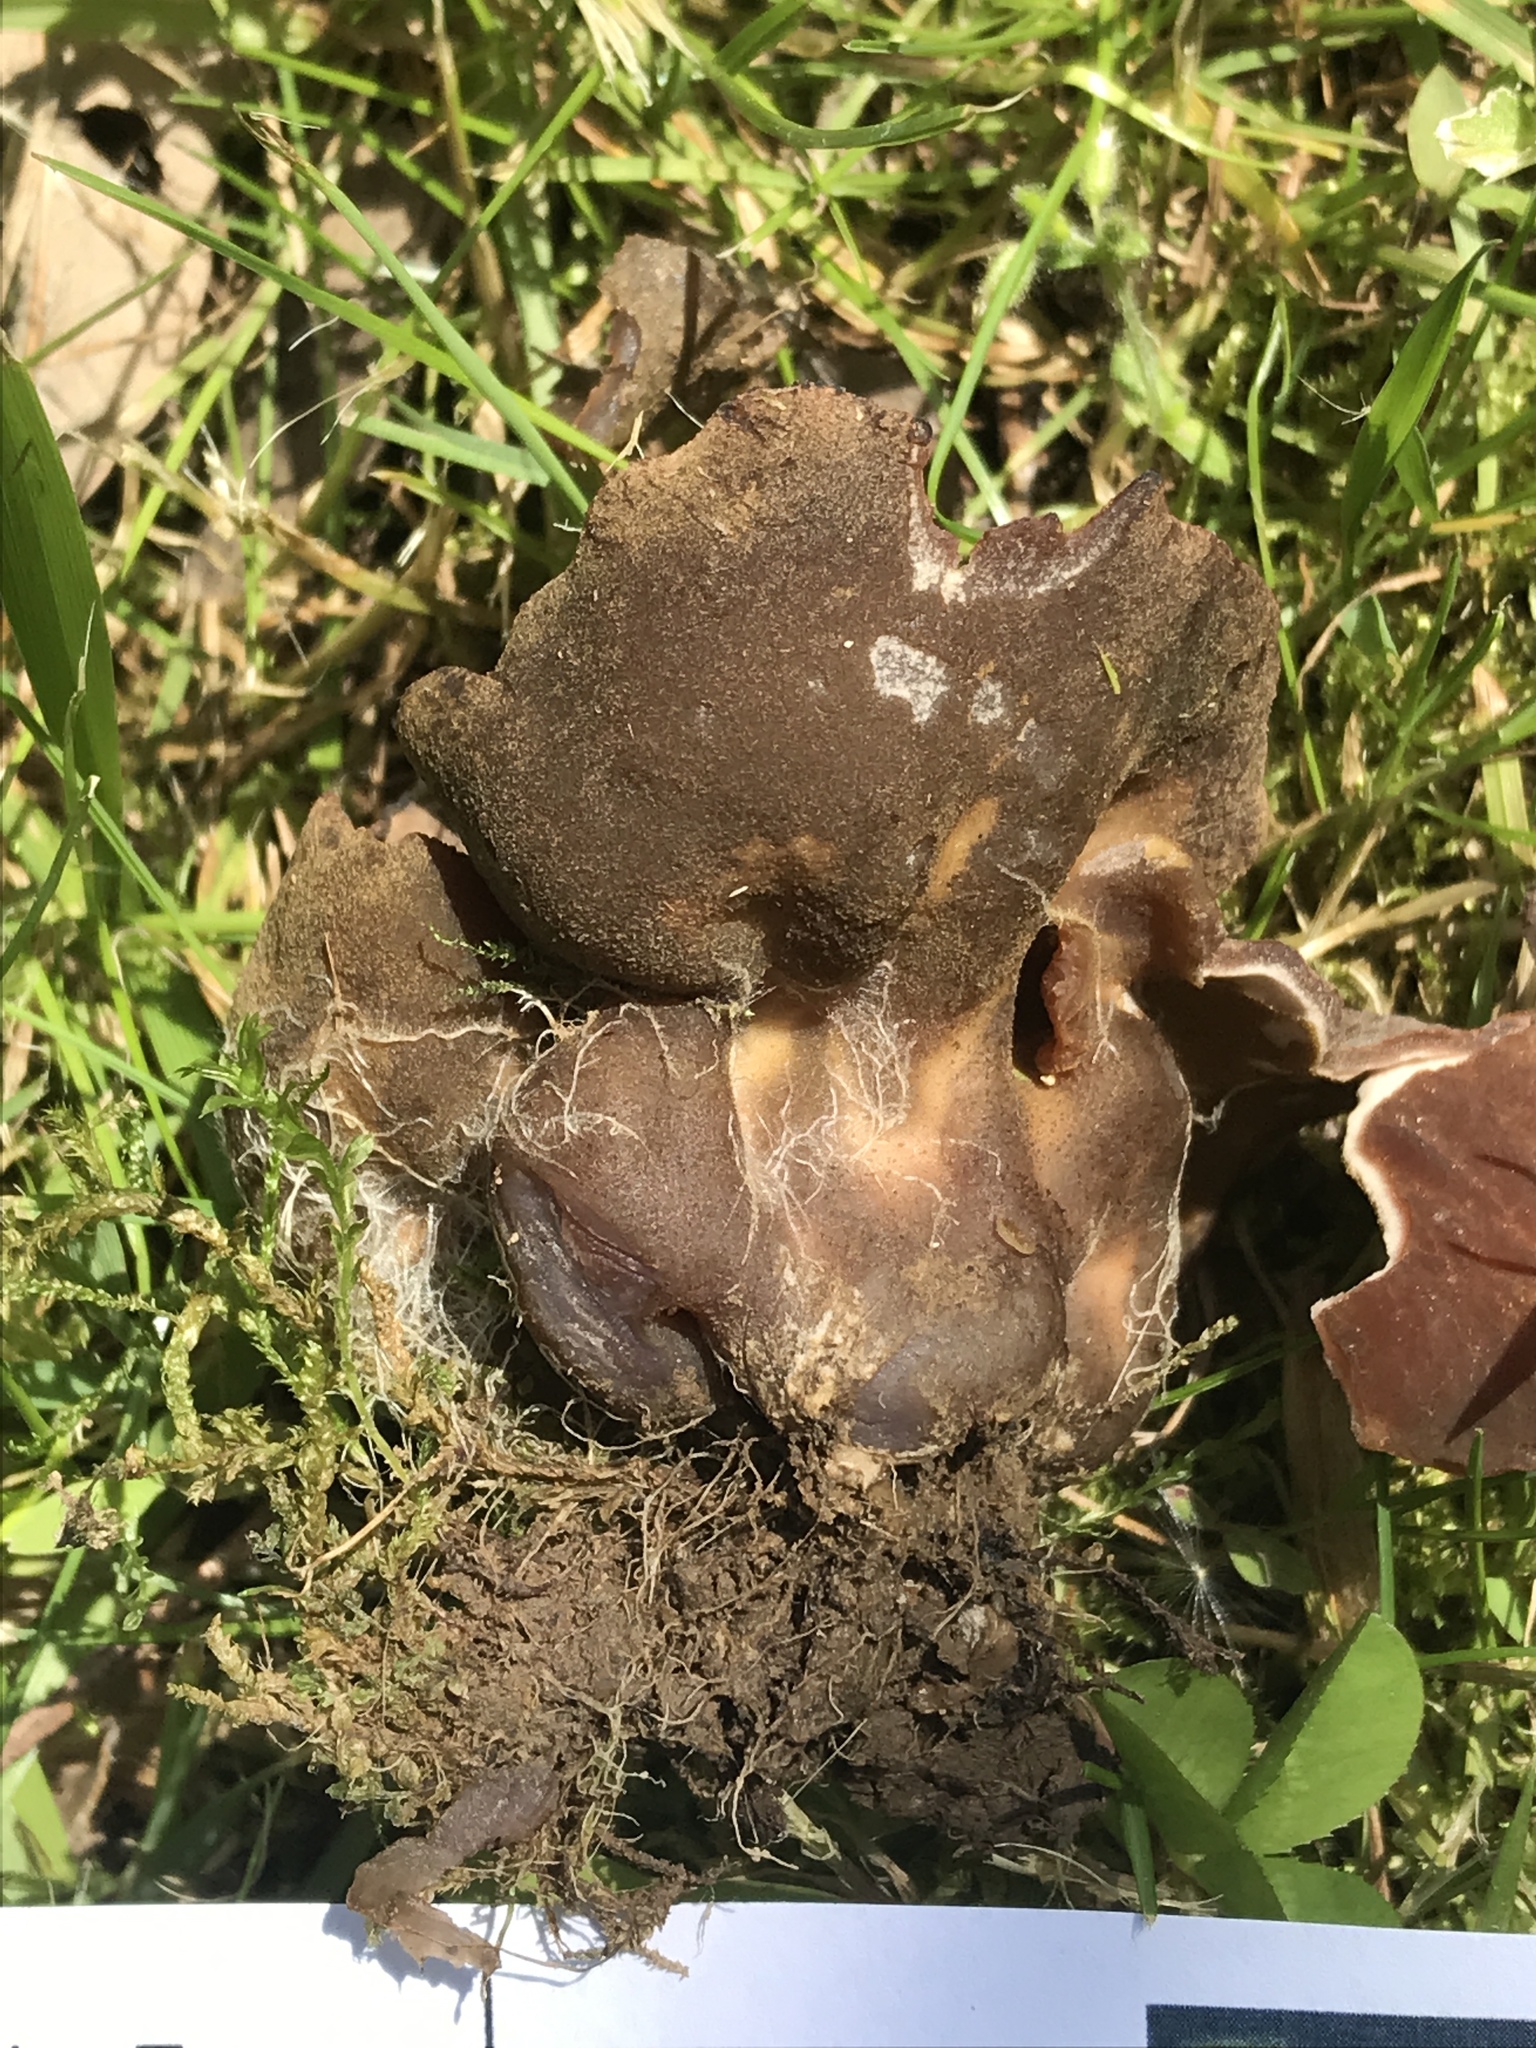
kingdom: Fungi
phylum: Ascomycota
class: Pezizomycetes
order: Pezizales
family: Pezizaceae
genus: Phylloscypha
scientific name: Phylloscypha phyllogena
